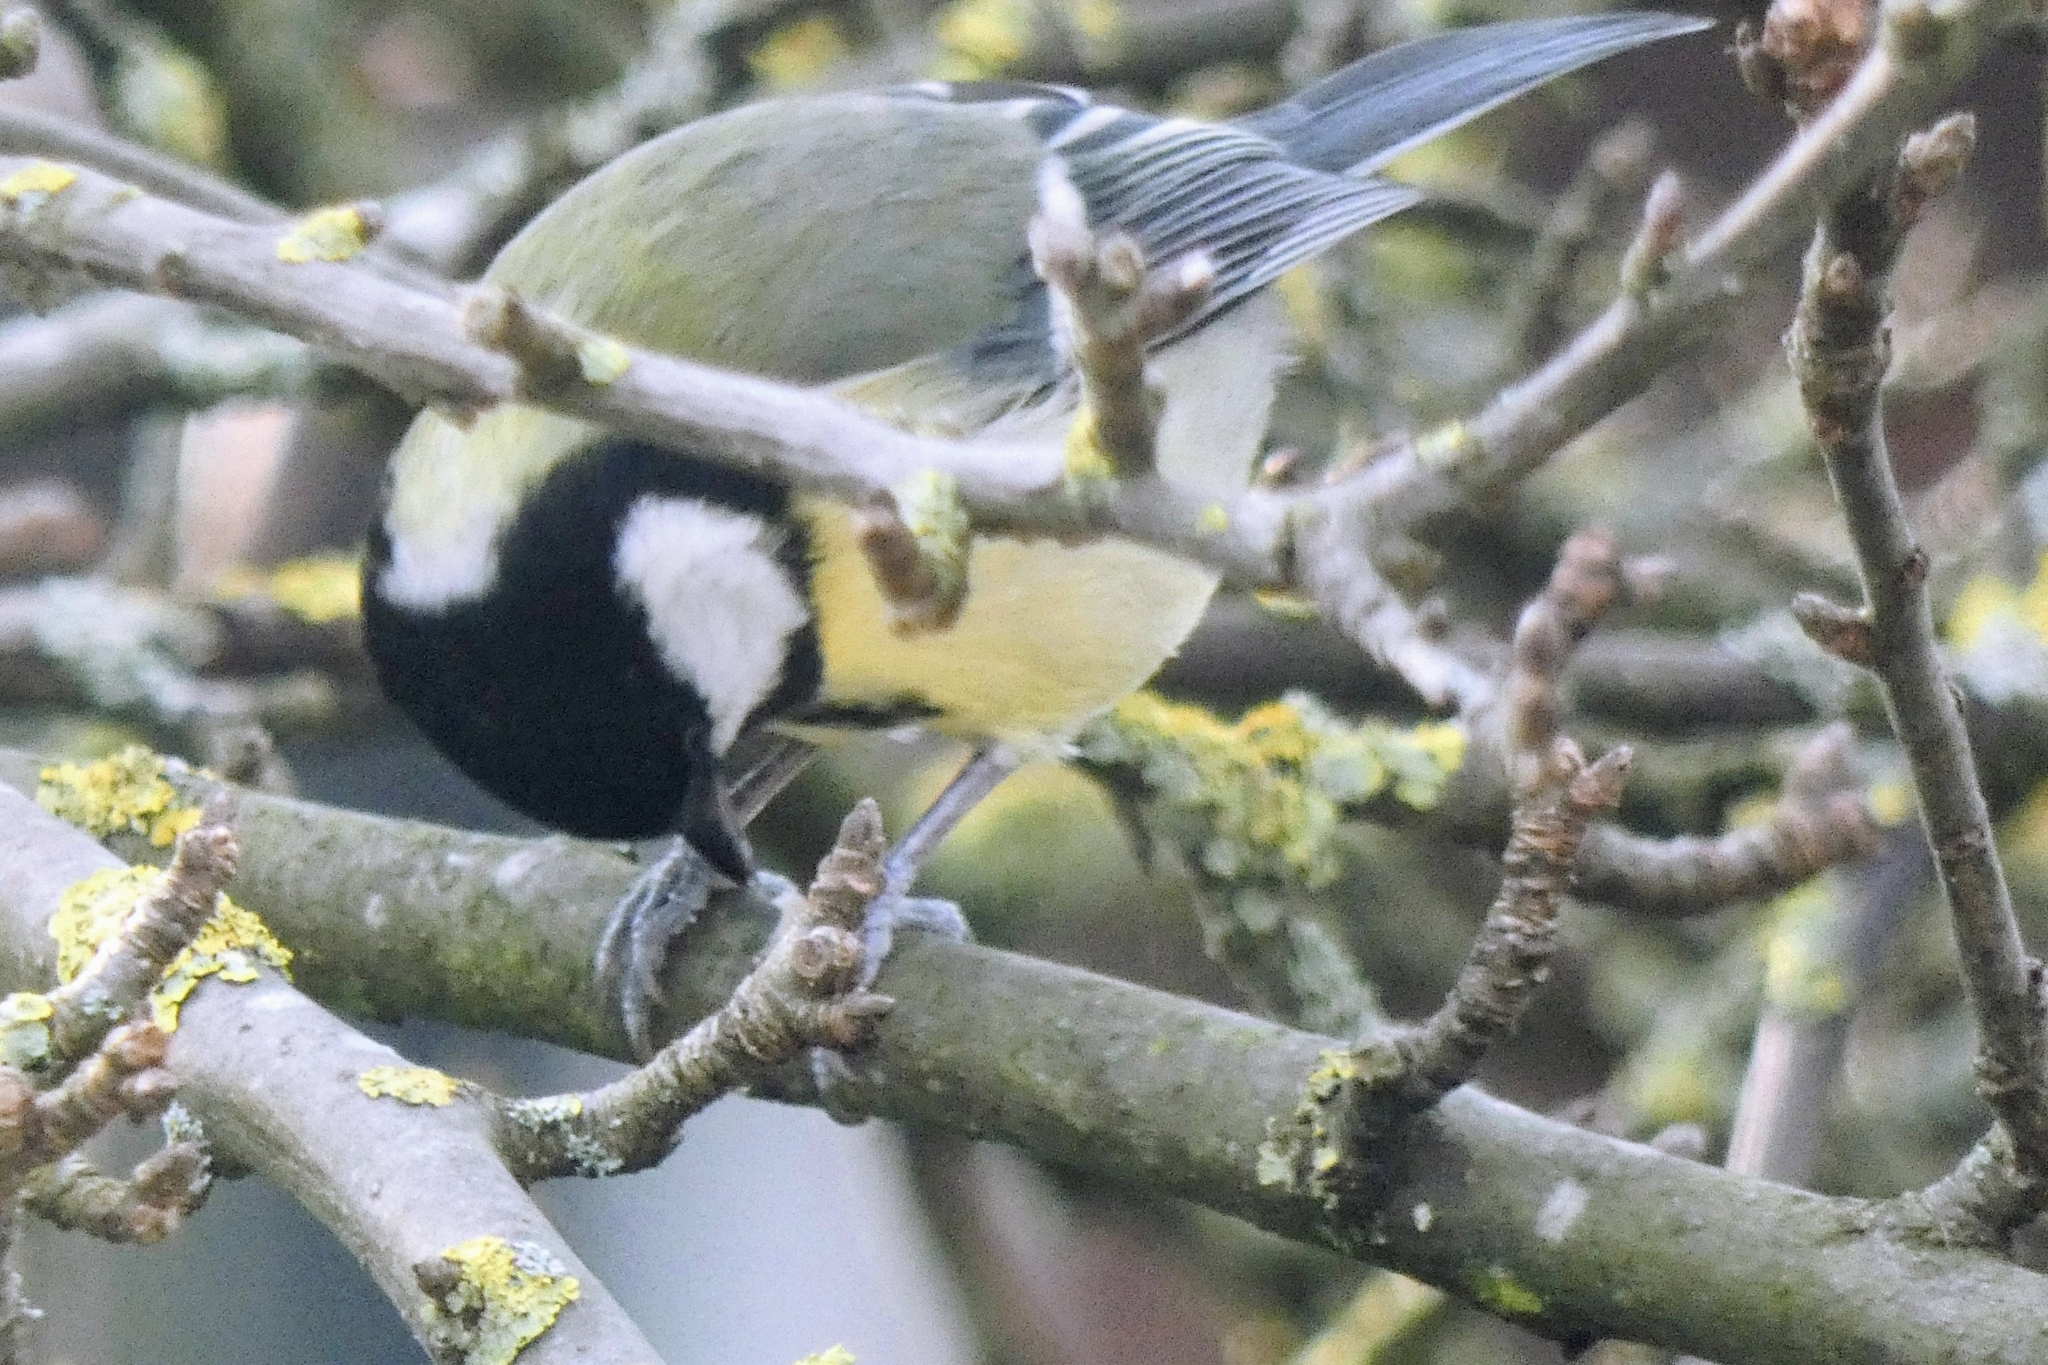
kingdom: Animalia
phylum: Chordata
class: Aves
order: Passeriformes
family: Paridae
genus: Parus
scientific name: Parus major
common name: Great tit
